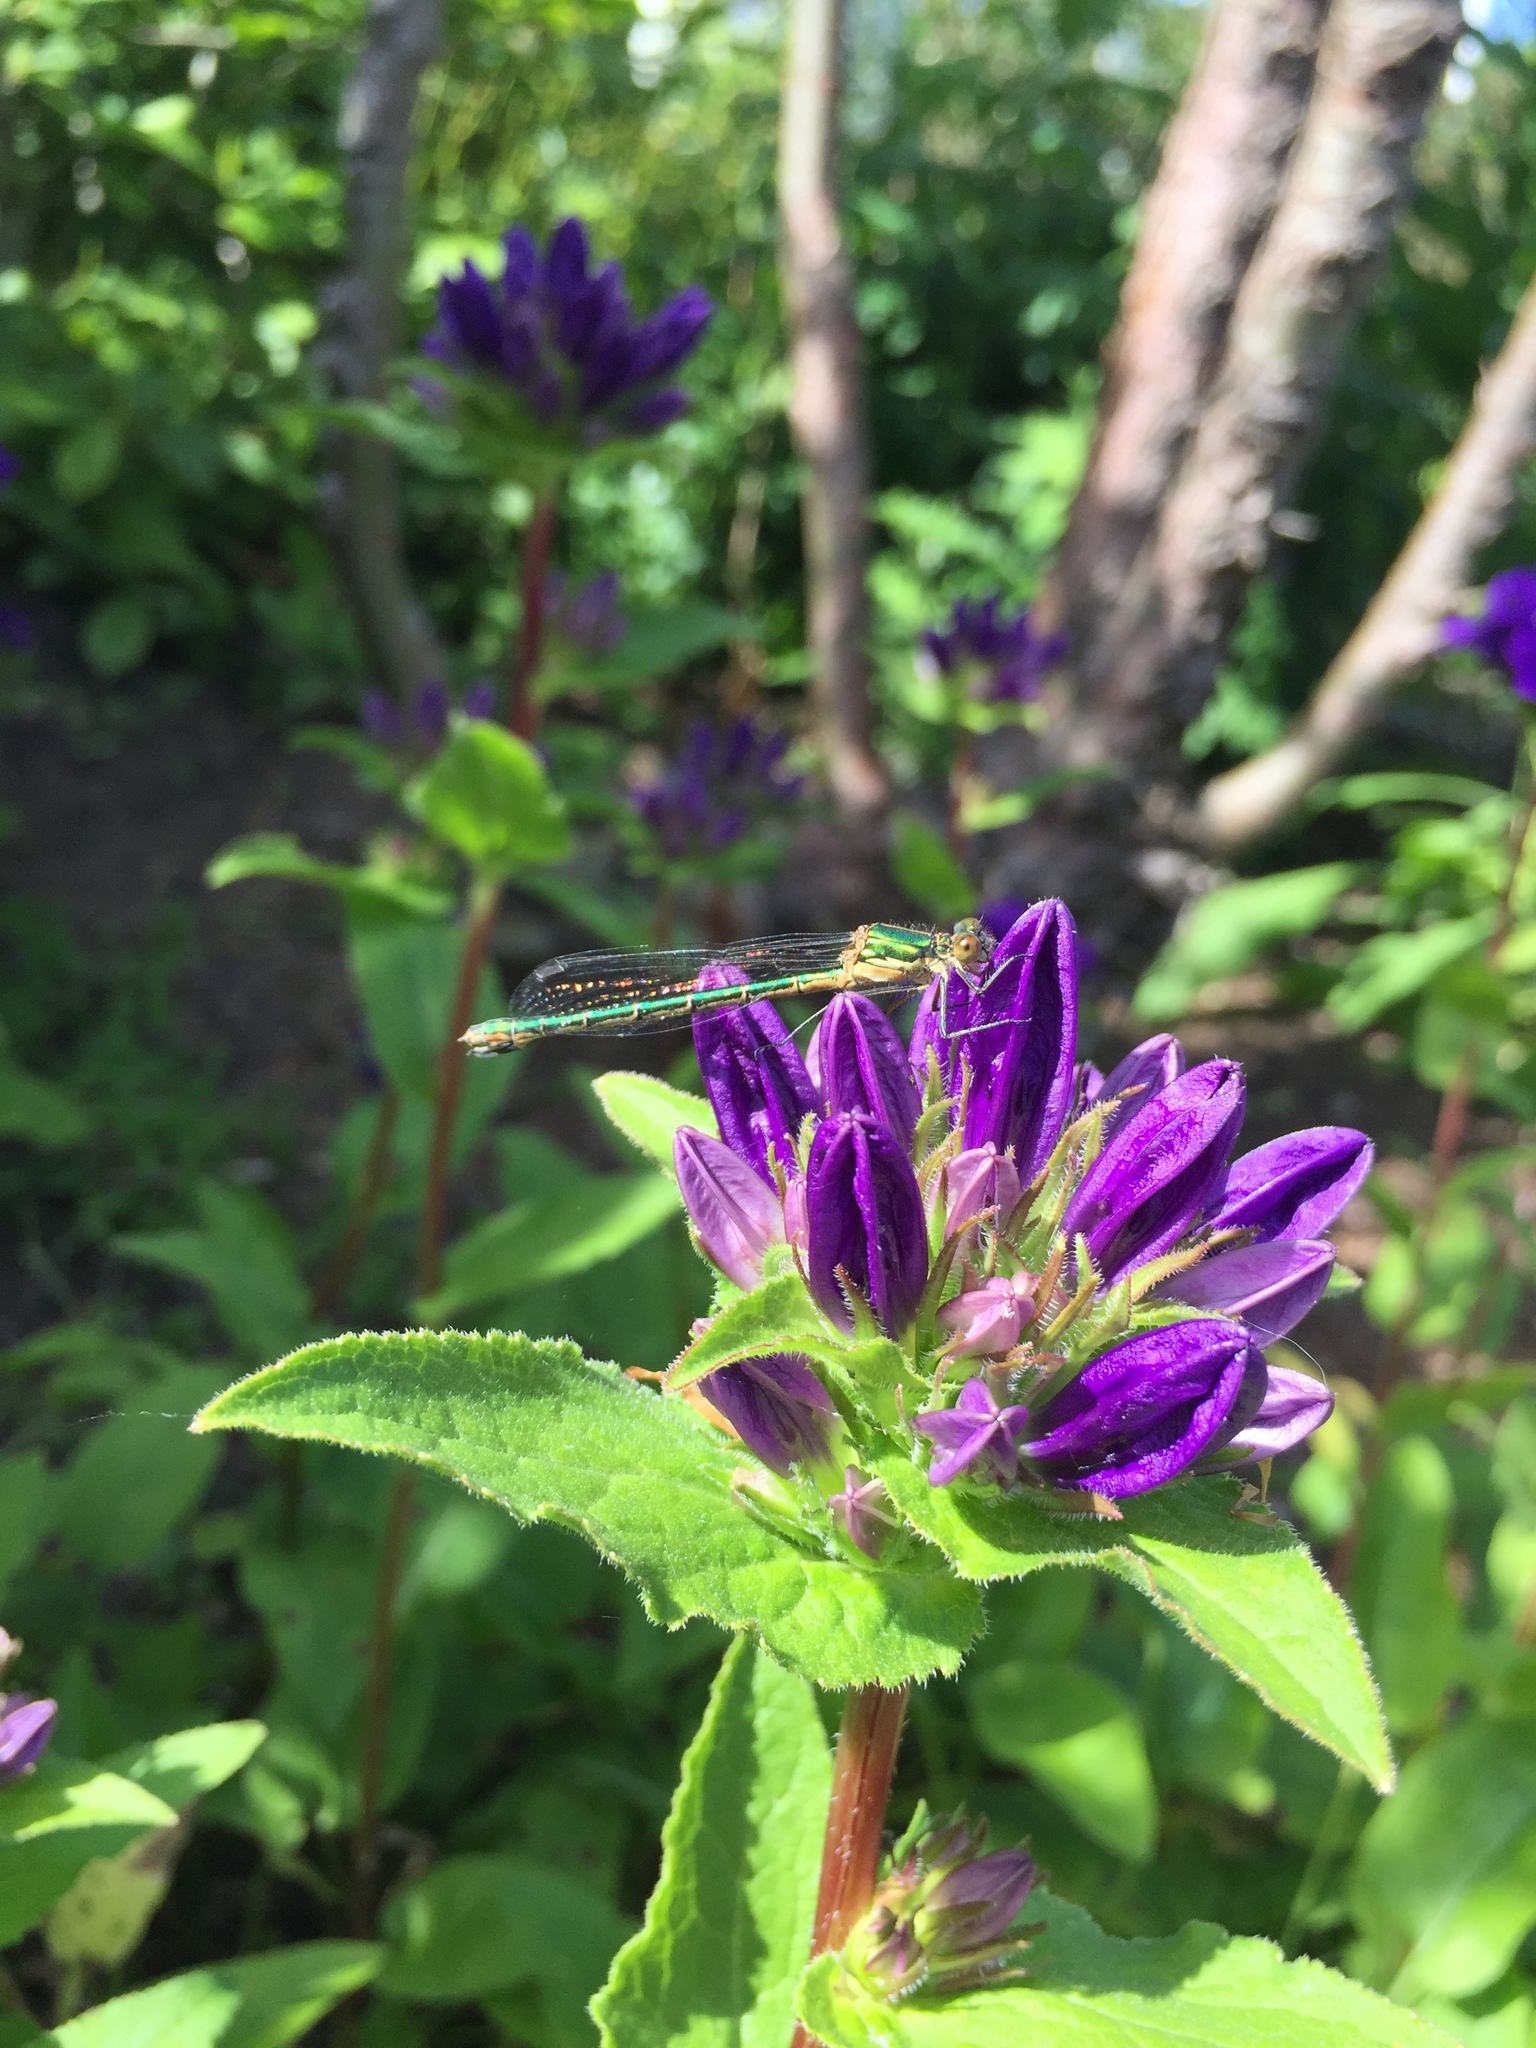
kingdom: Animalia
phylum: Arthropoda
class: Insecta
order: Odonata
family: Lestidae
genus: Lestes
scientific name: Lestes dryas
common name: Scarce emerald damselfly
